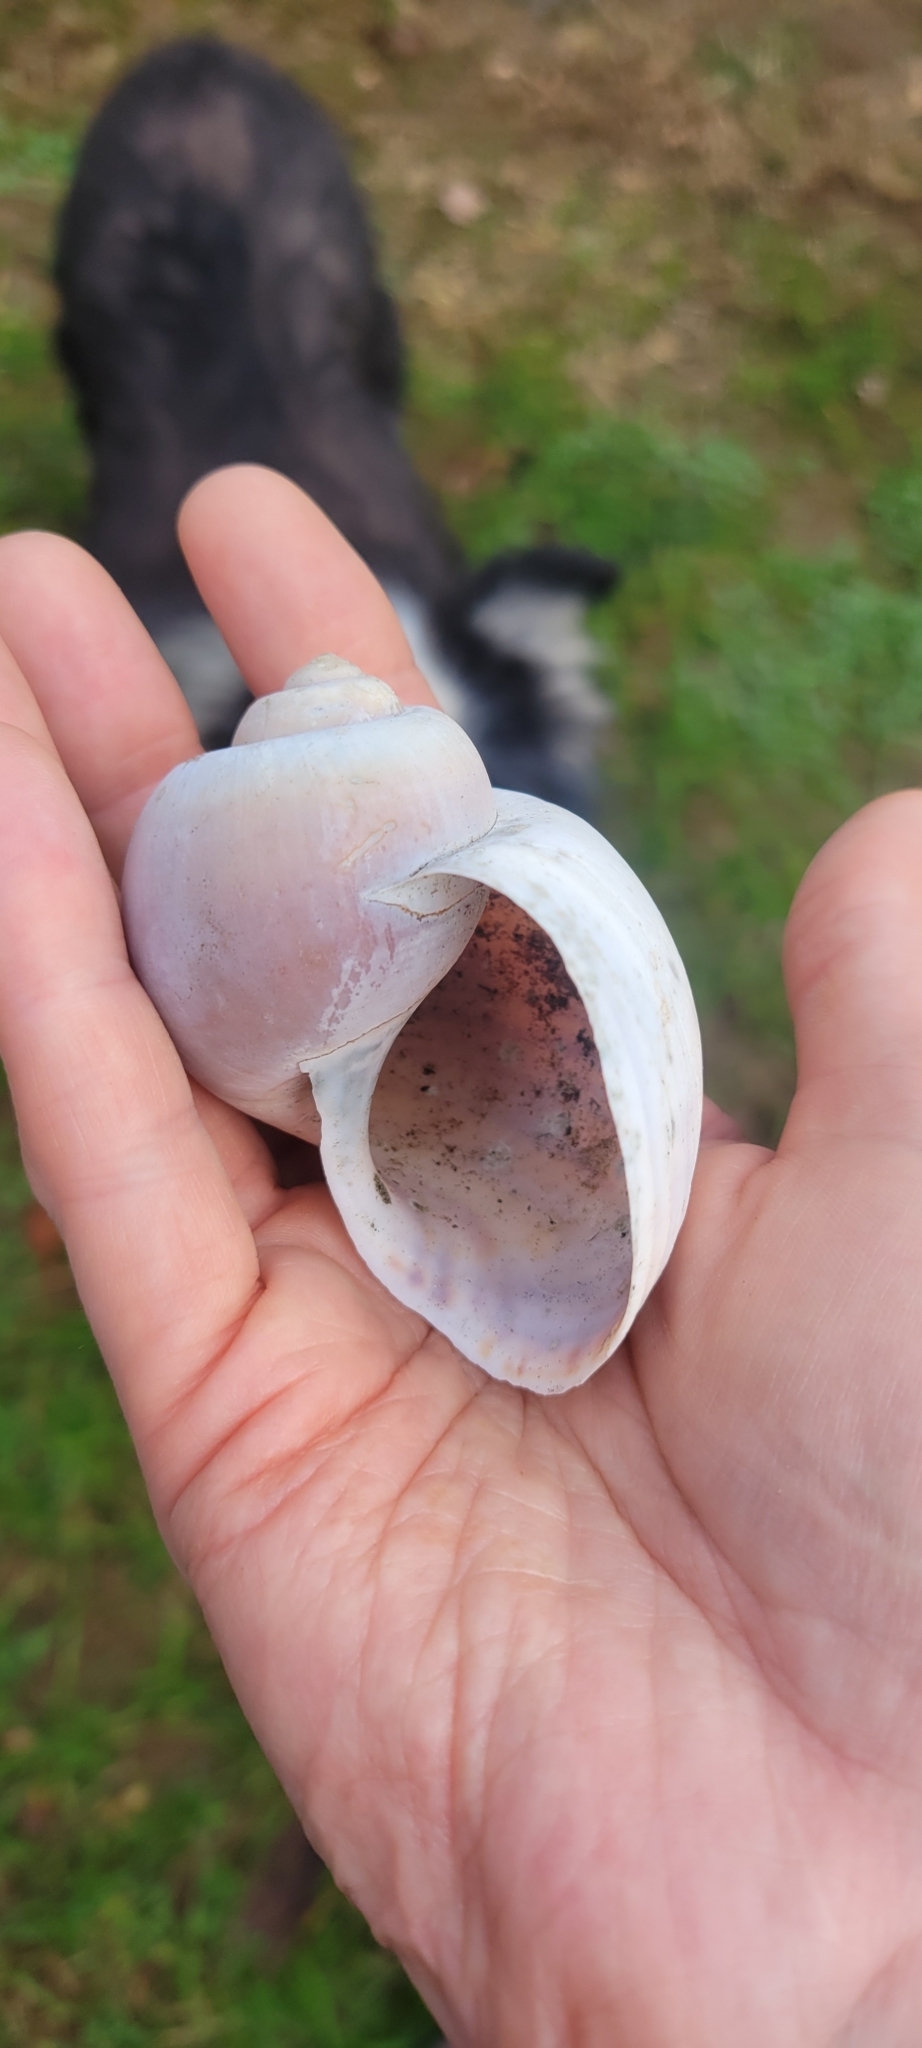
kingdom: Animalia
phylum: Mollusca
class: Gastropoda
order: Architaenioglossa
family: Ampullariidae
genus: Pomacea
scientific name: Pomacea maculata
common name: Giant applesnail
